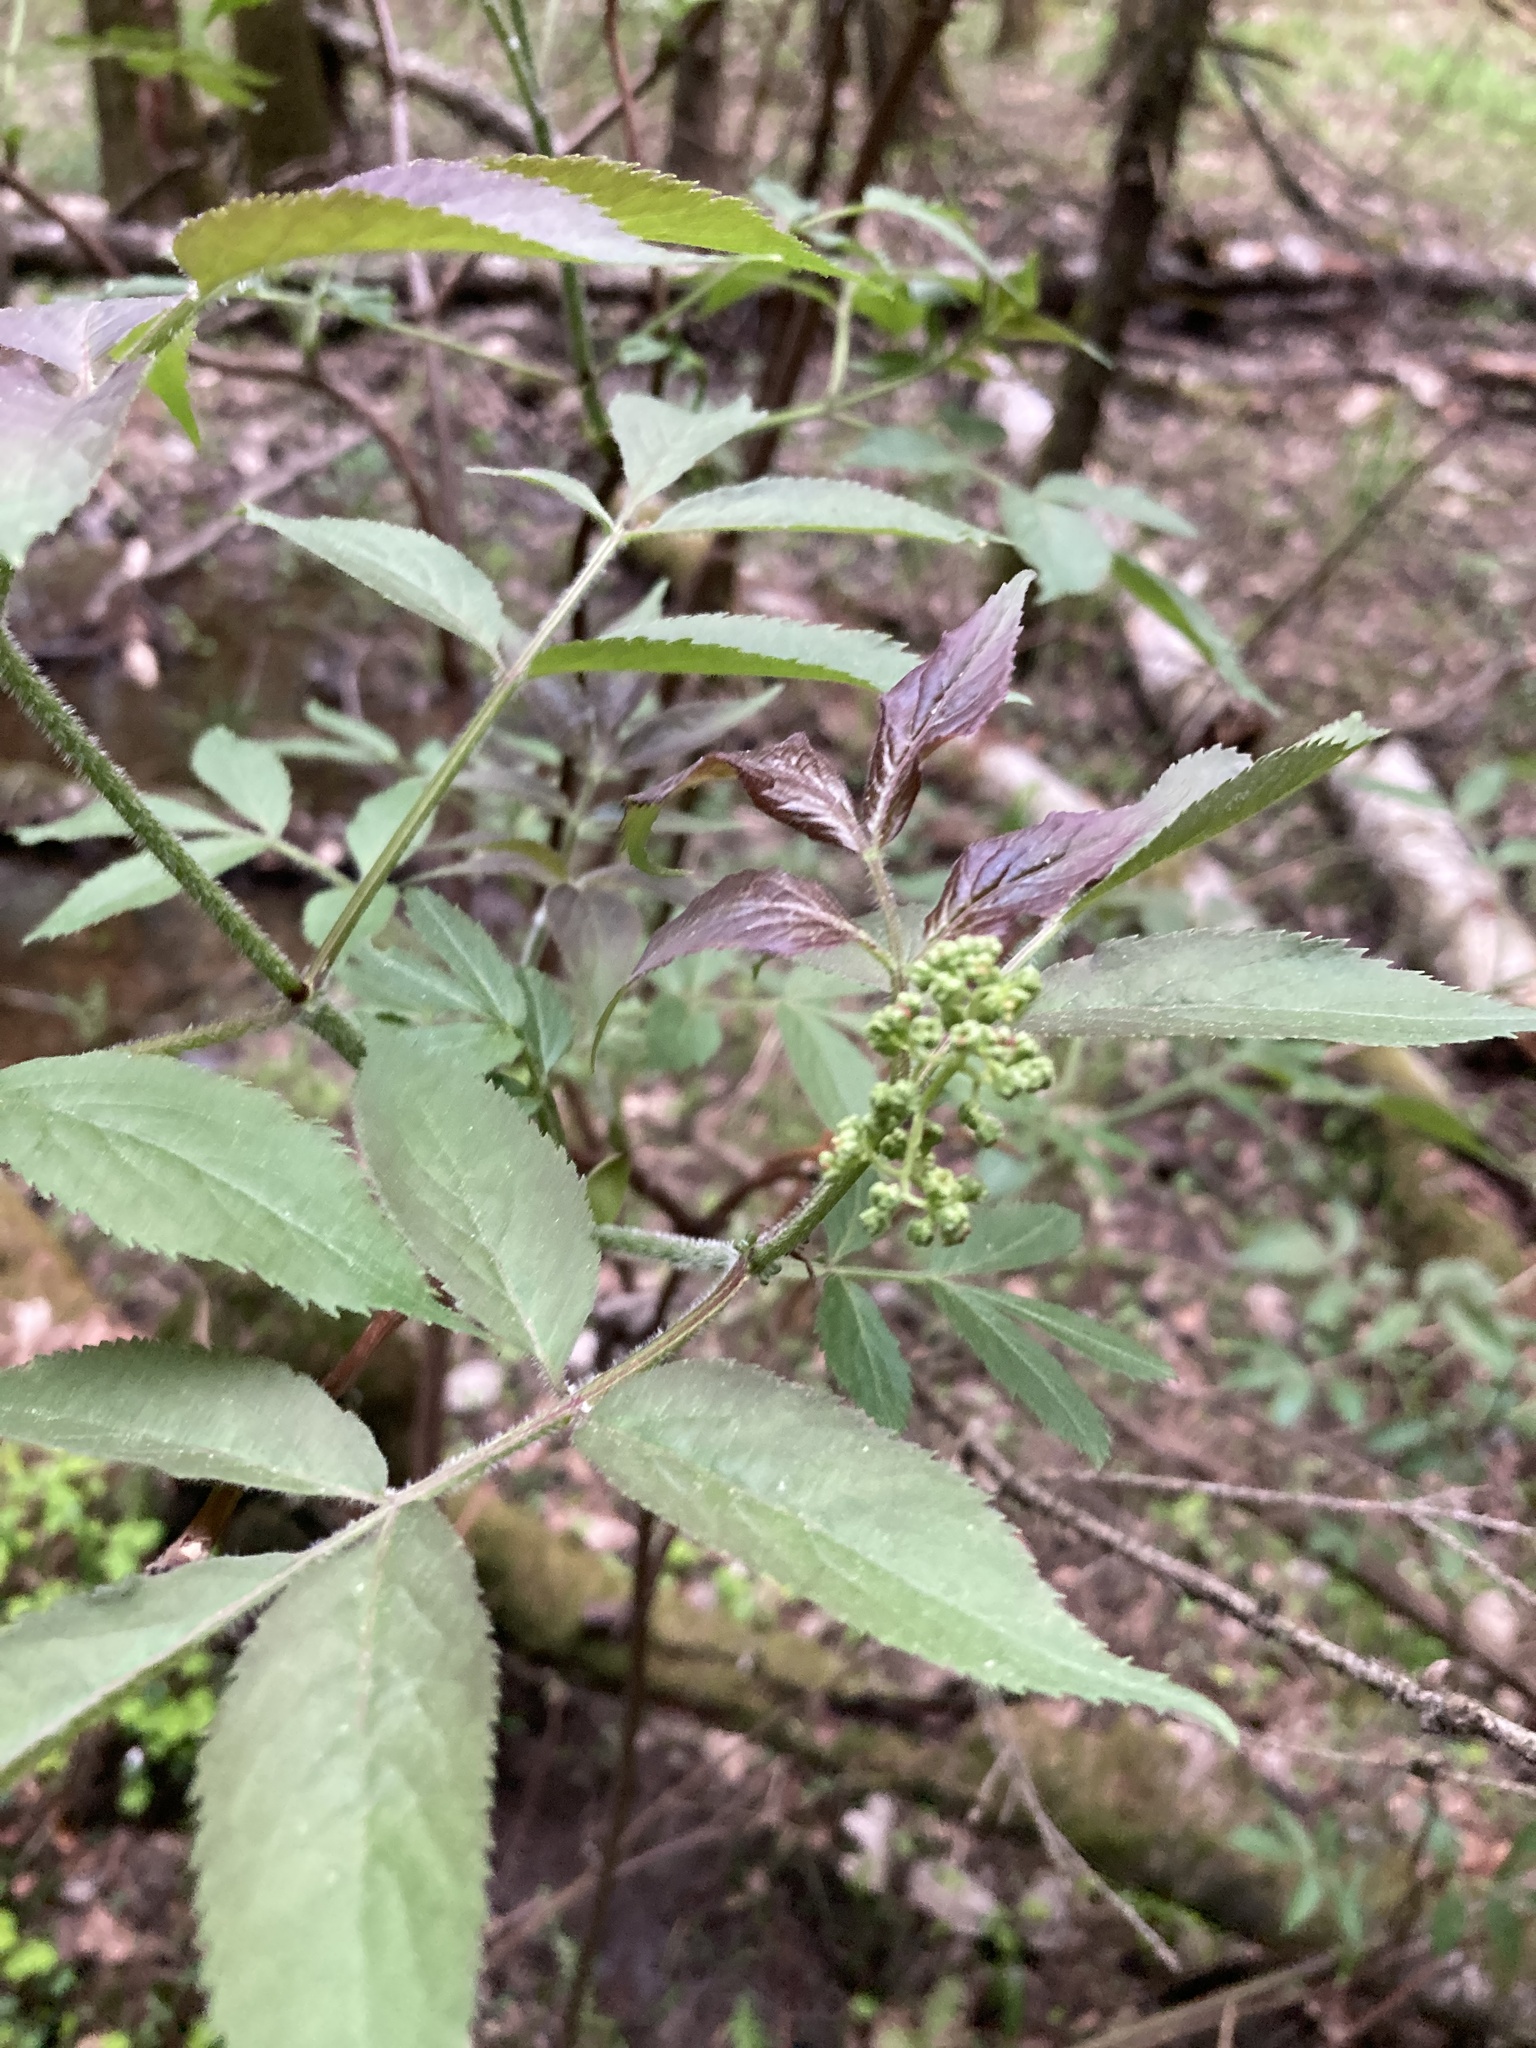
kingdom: Plantae
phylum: Tracheophyta
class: Magnoliopsida
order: Dipsacales
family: Viburnaceae
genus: Sambucus
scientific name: Sambucus racemosa
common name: Red-berried elder
